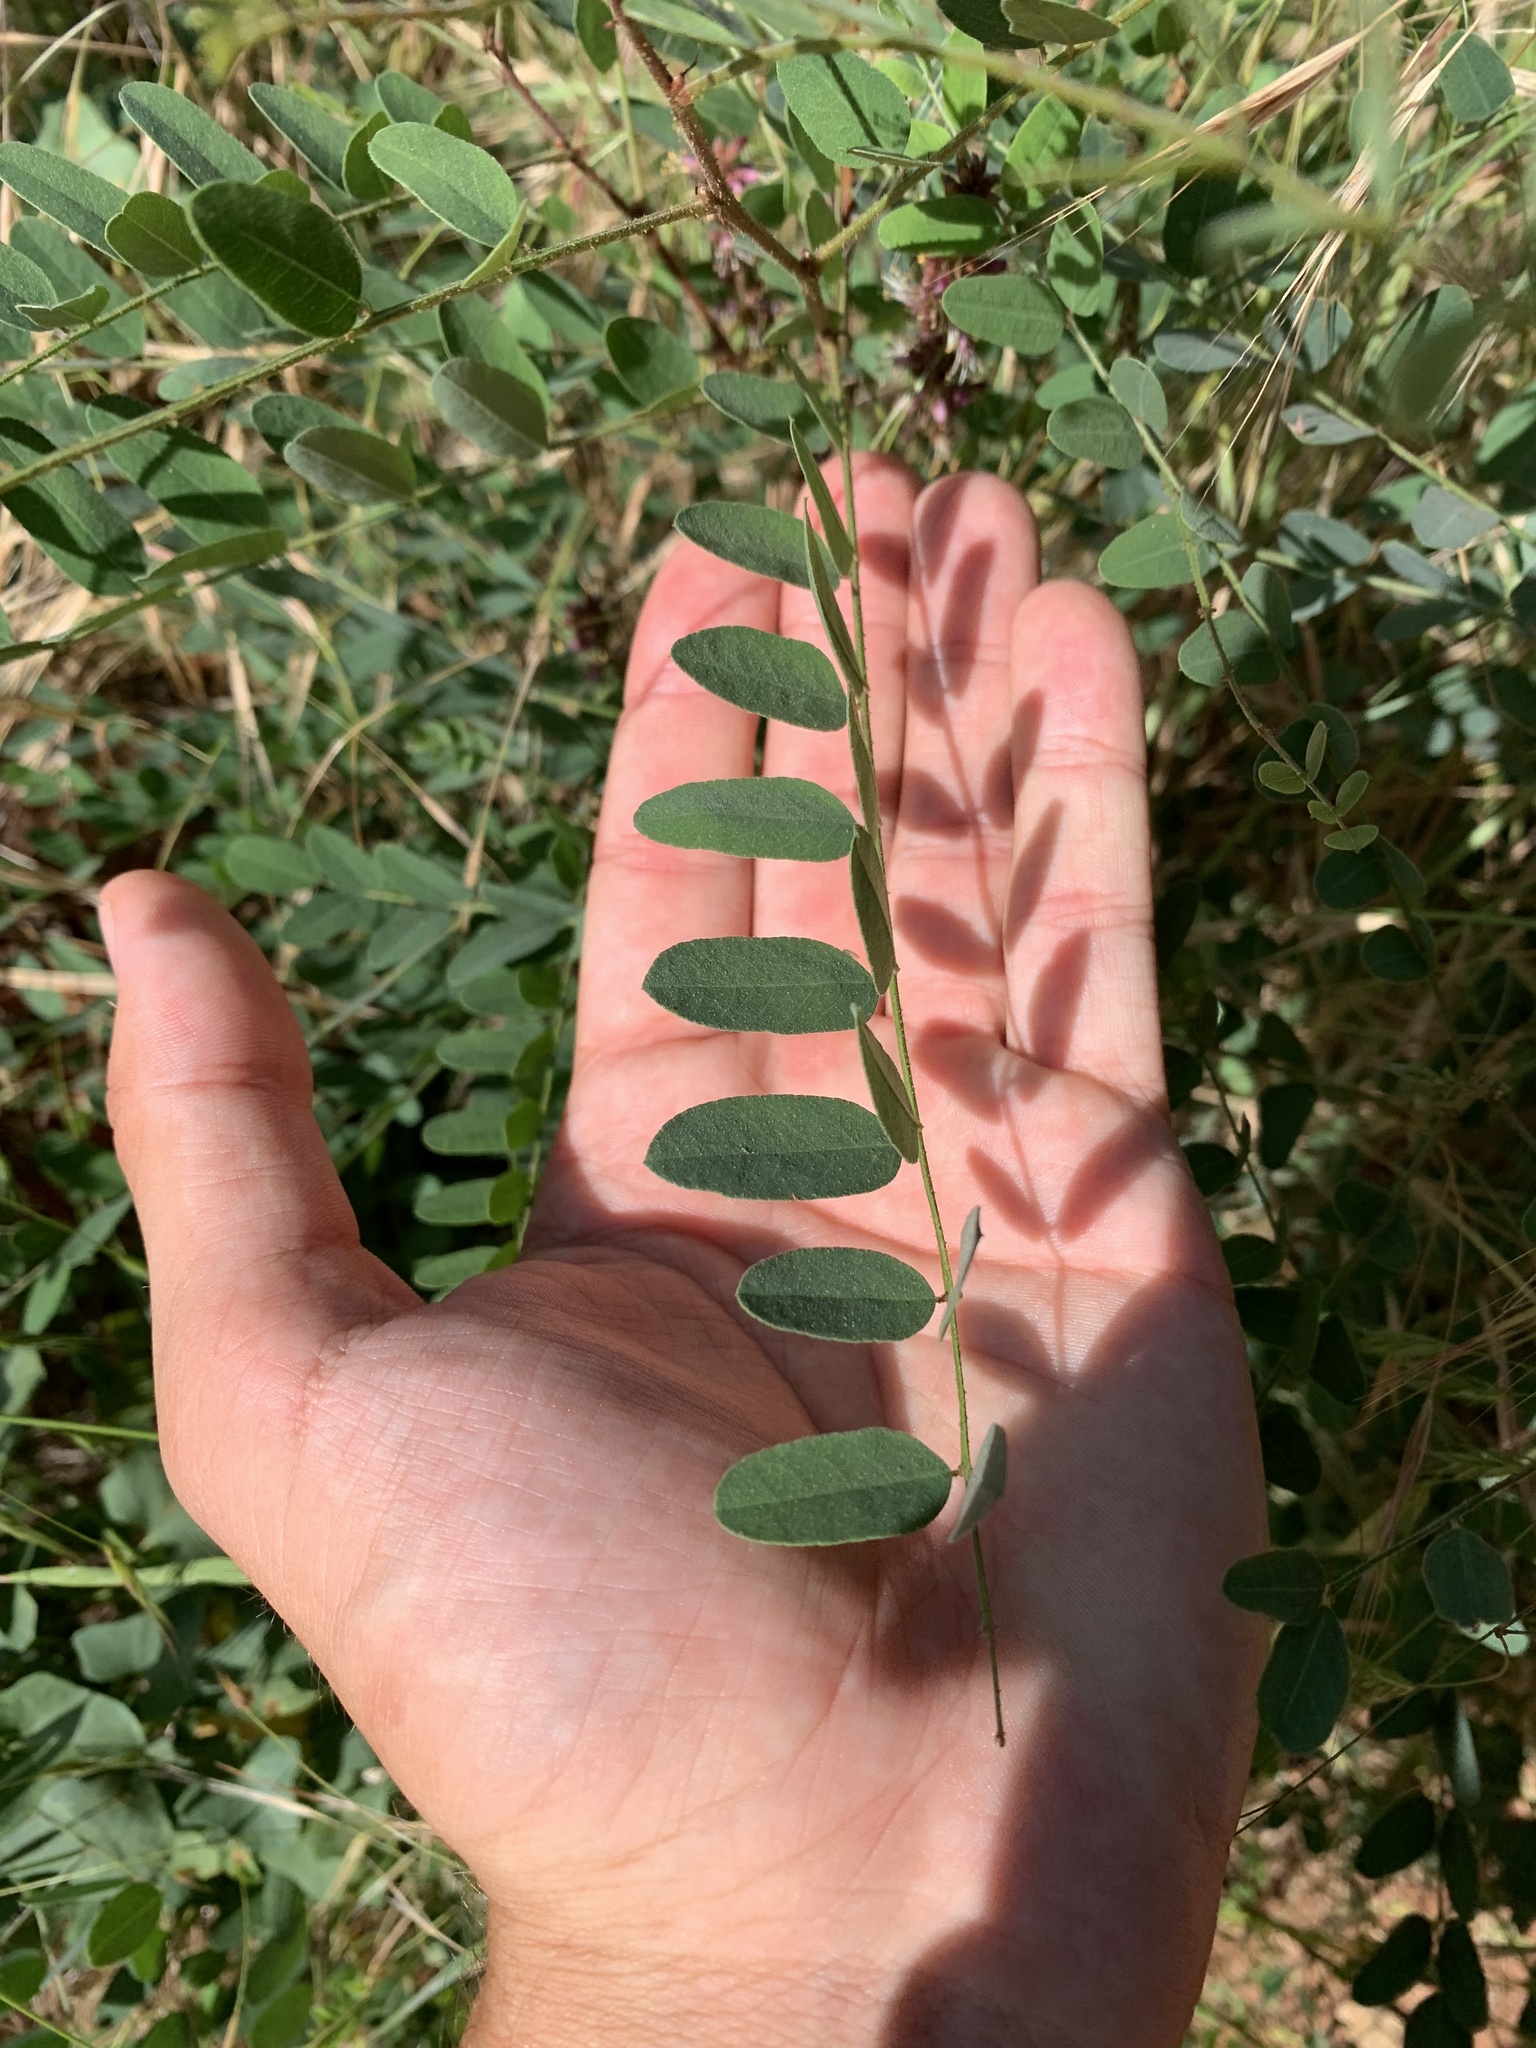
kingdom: Plantae
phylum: Tracheophyta
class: Magnoliopsida
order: Fabales
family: Fabaceae
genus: Amorpha
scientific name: Amorpha californica
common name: California indigobush
